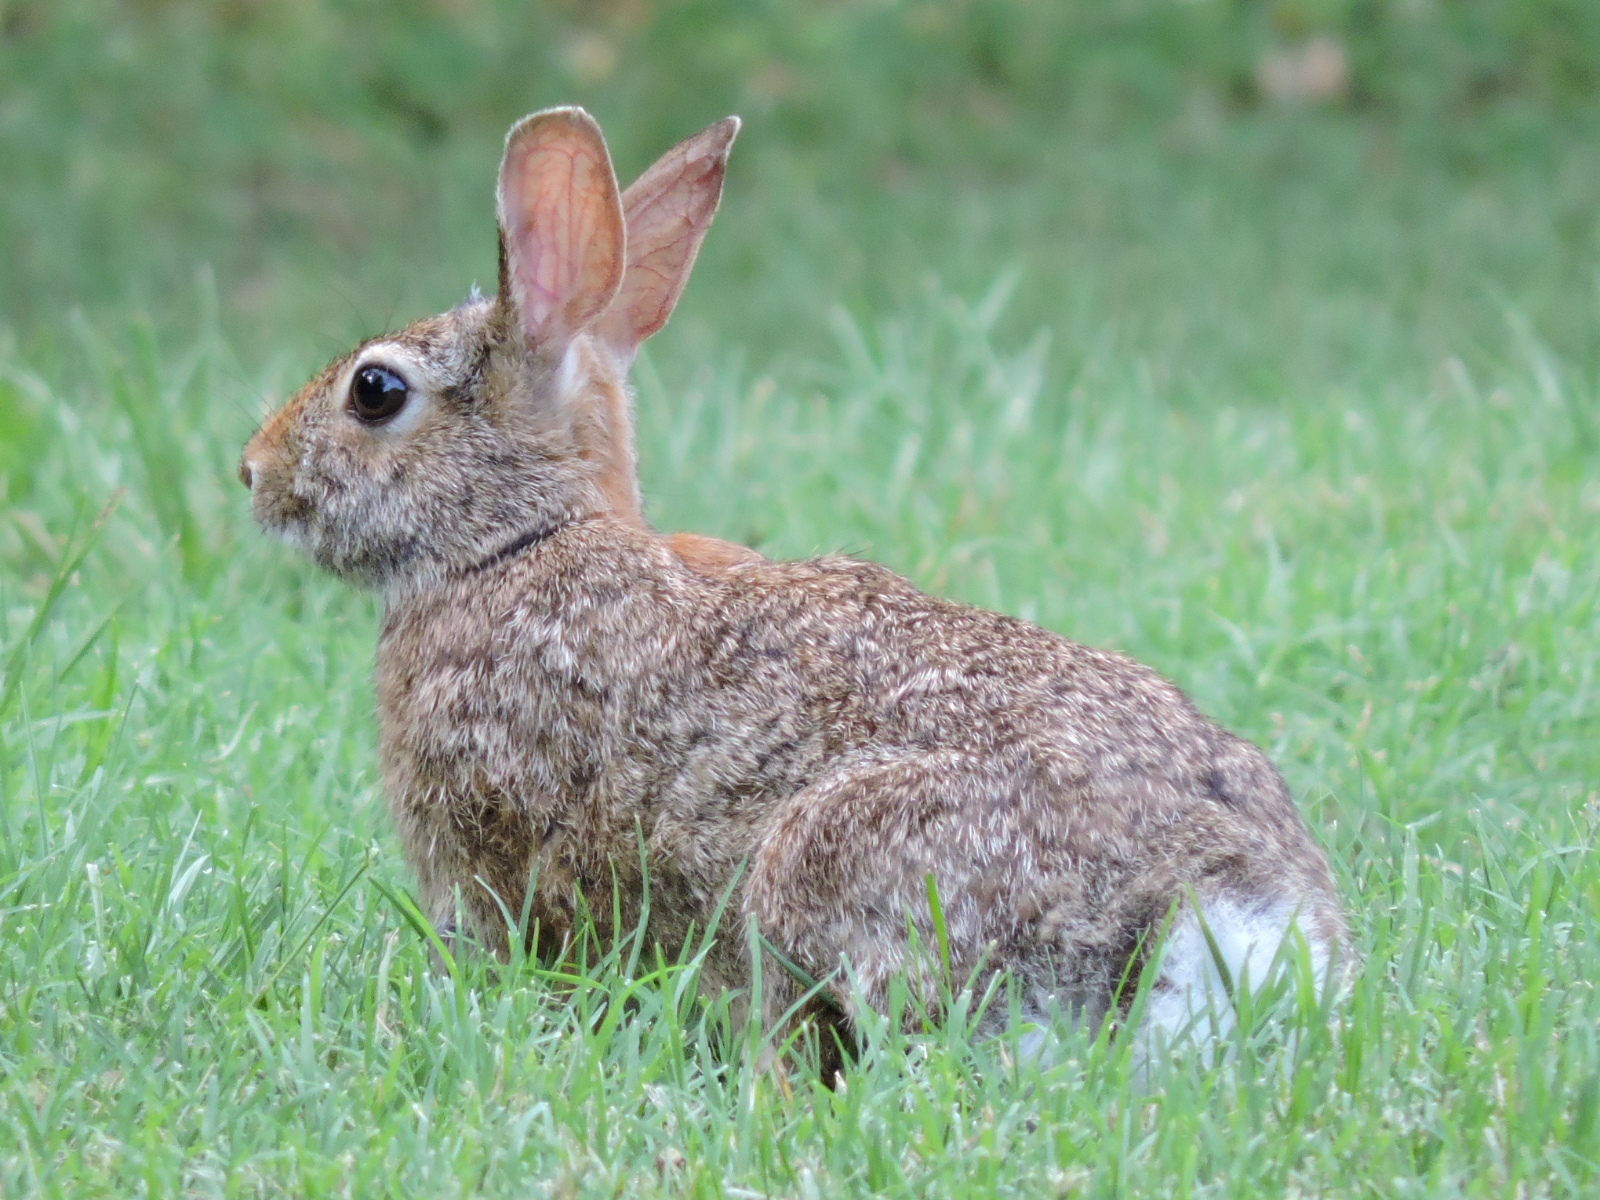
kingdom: Animalia
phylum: Chordata
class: Mammalia
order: Lagomorpha
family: Leporidae
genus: Sylvilagus
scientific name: Sylvilagus floridanus
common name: Eastern cottontail
